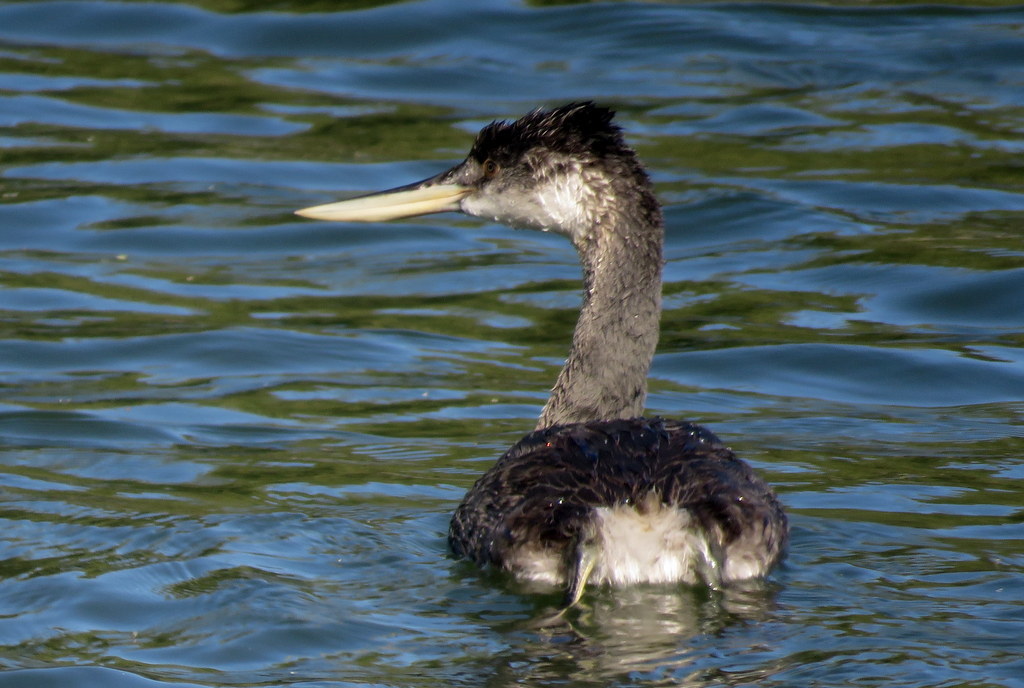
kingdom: Animalia
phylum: Chordata
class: Aves
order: Podicipediformes
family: Podicipedidae
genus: Podiceps
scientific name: Podiceps major
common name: Great grebe
